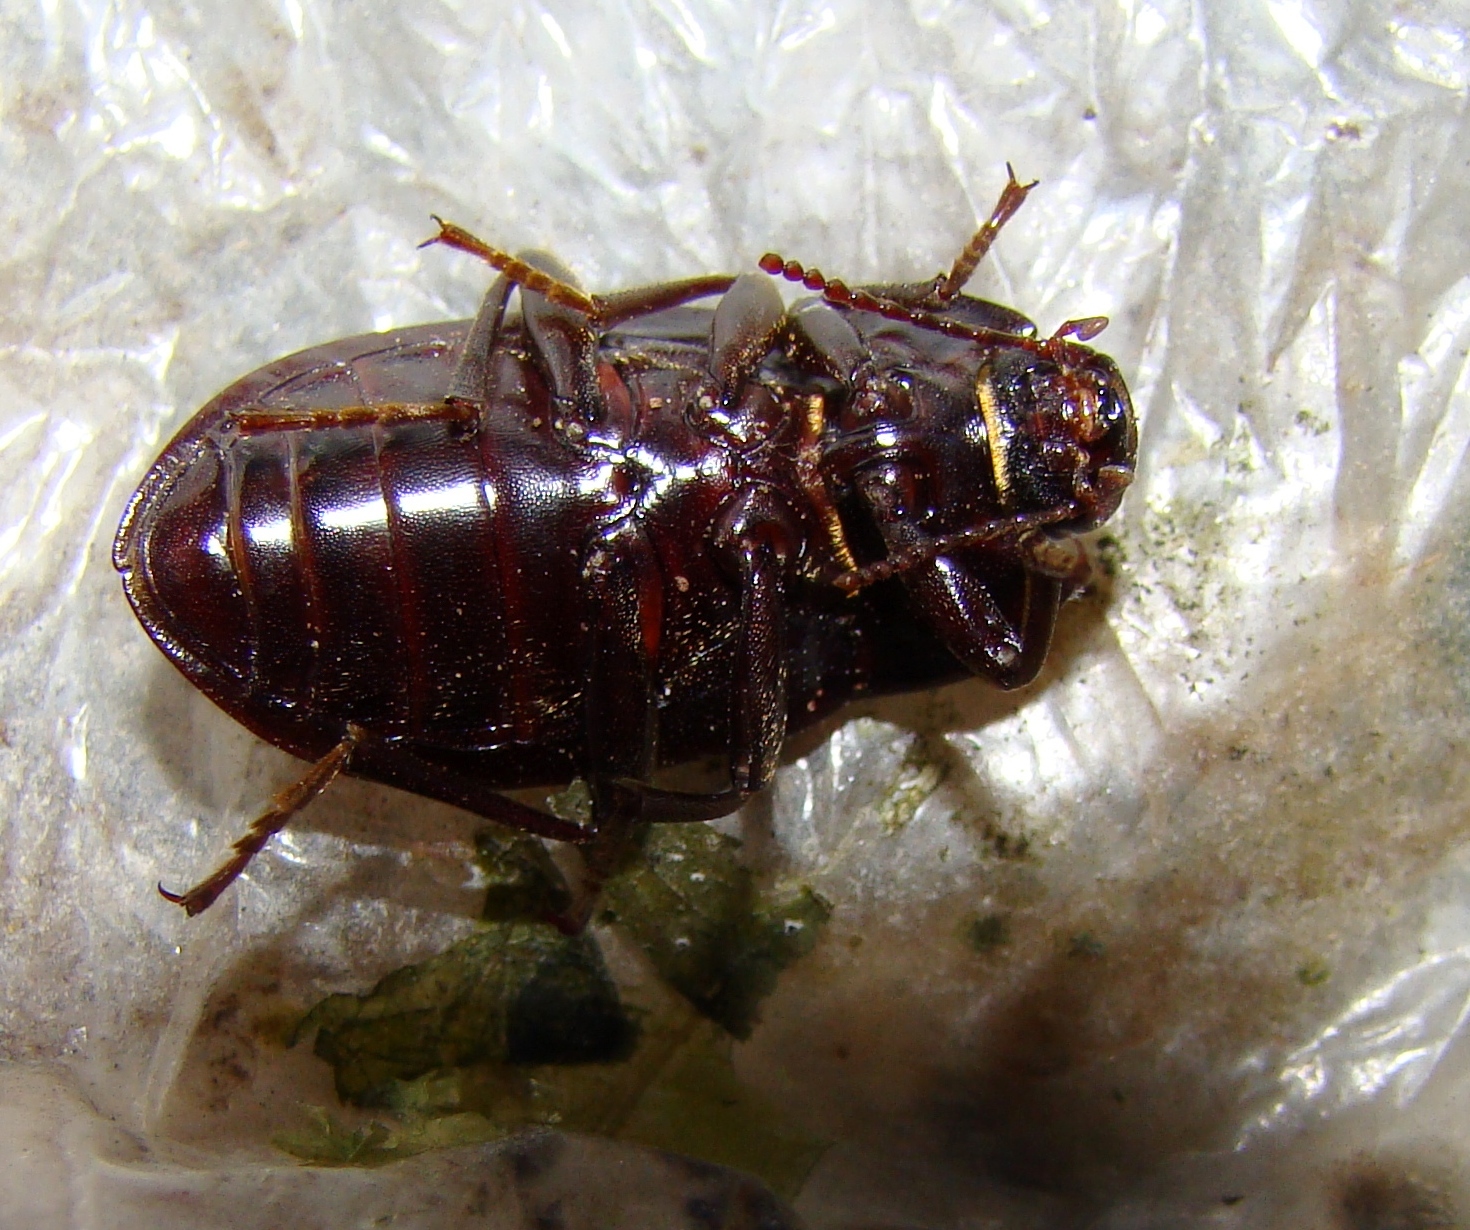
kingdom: Animalia
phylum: Arthropoda
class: Insecta
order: Coleoptera
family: Tenebrionidae
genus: Mimopeus
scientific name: Mimopeus
